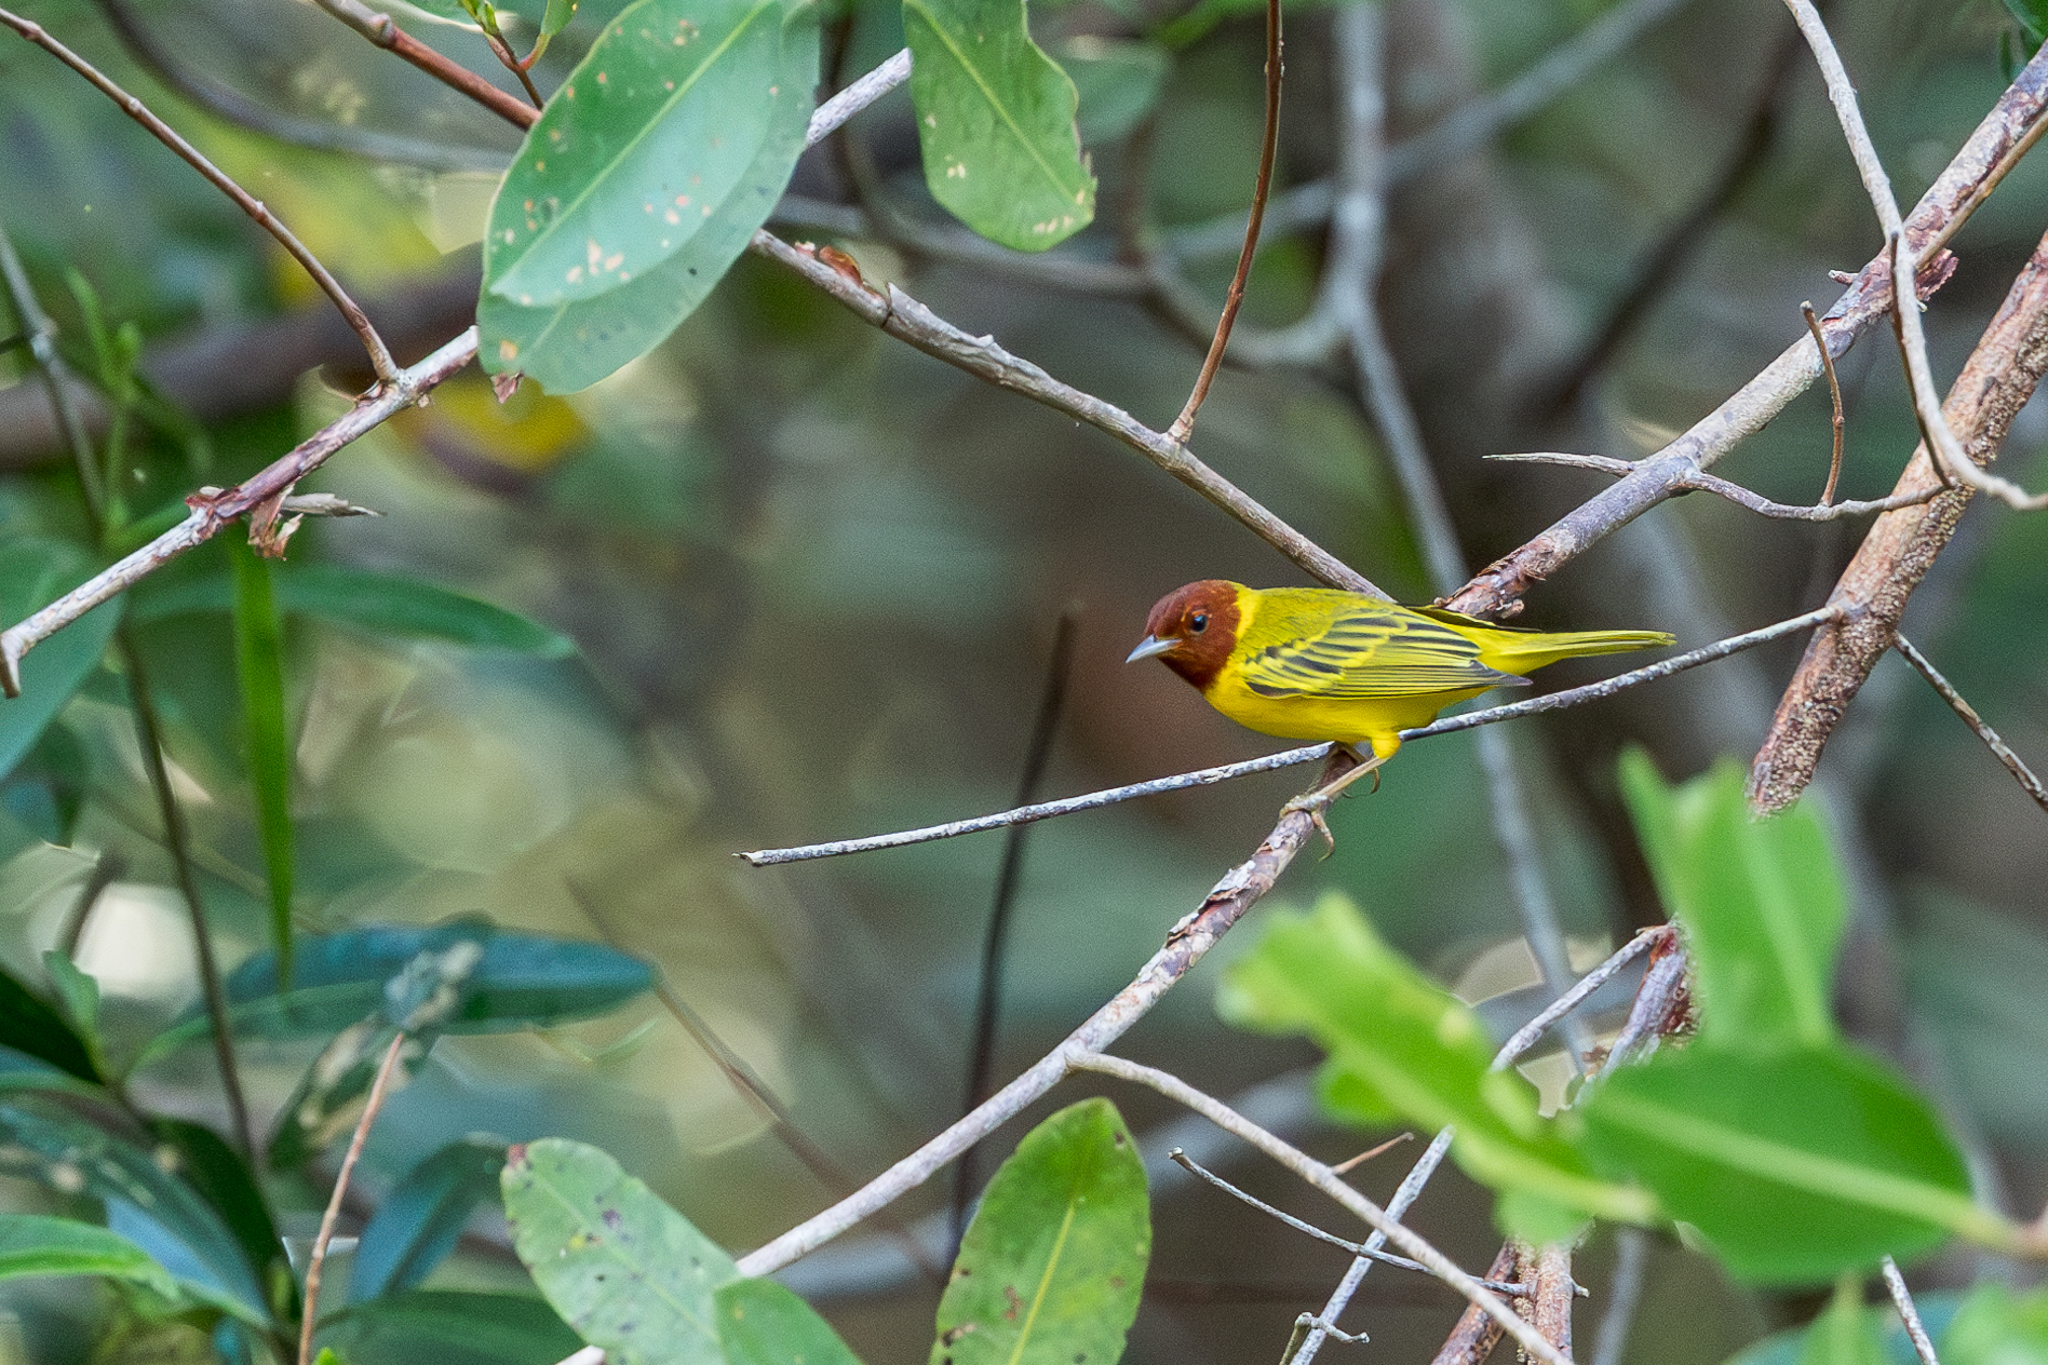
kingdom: Animalia
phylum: Chordata
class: Aves
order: Passeriformes
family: Parulidae
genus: Setophaga
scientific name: Setophaga petechia
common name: Yellow warbler
